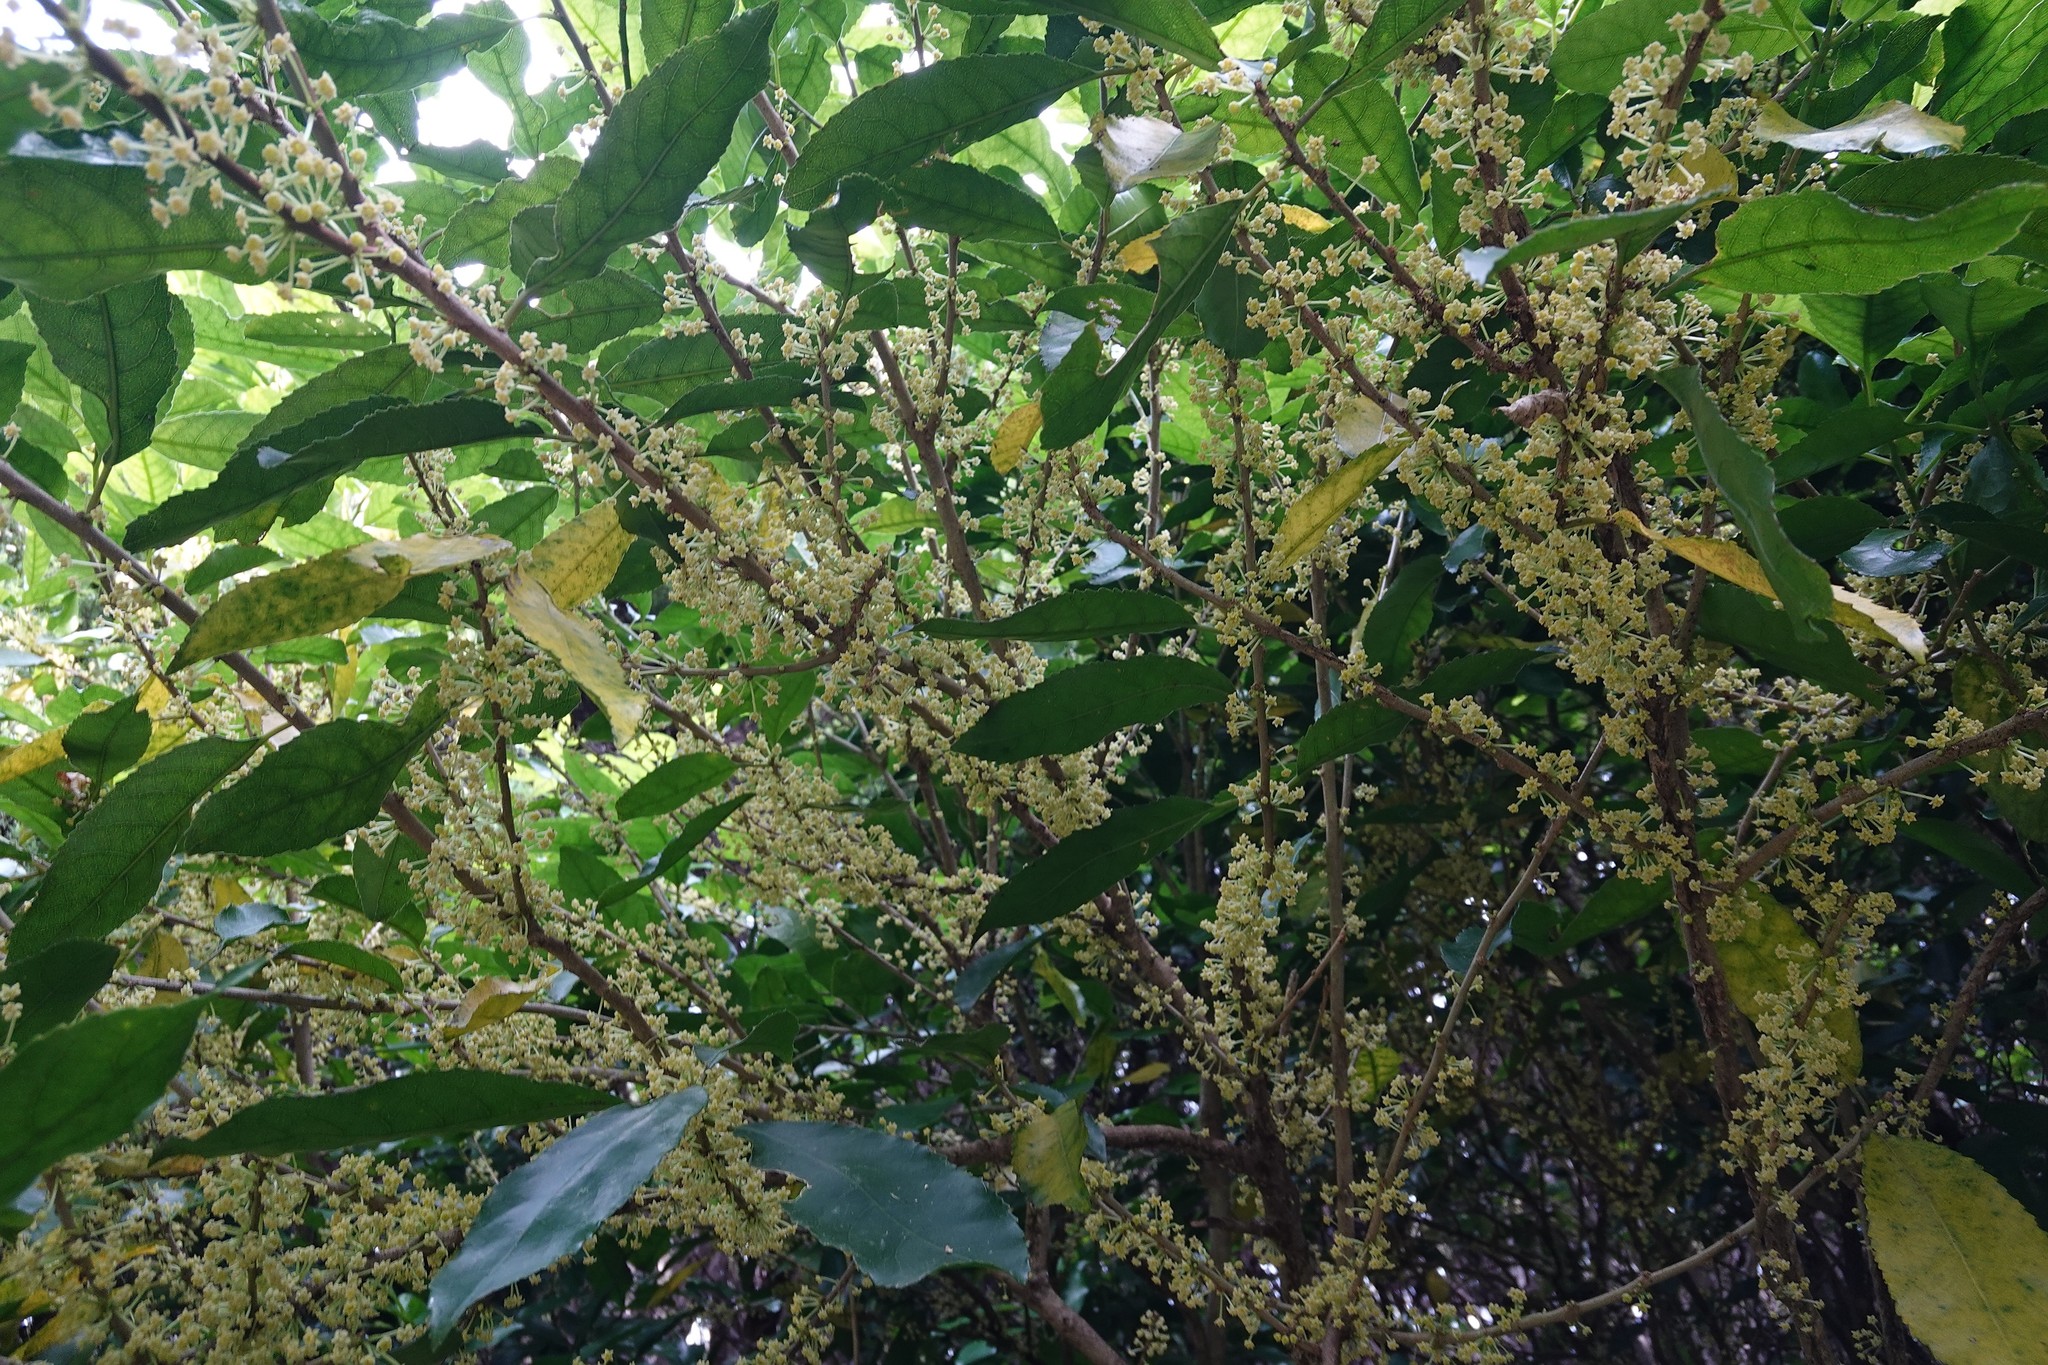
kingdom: Plantae
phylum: Tracheophyta
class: Magnoliopsida
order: Malpighiales
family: Violaceae
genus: Melicytus
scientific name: Melicytus ramiflorus
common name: Mahoe
